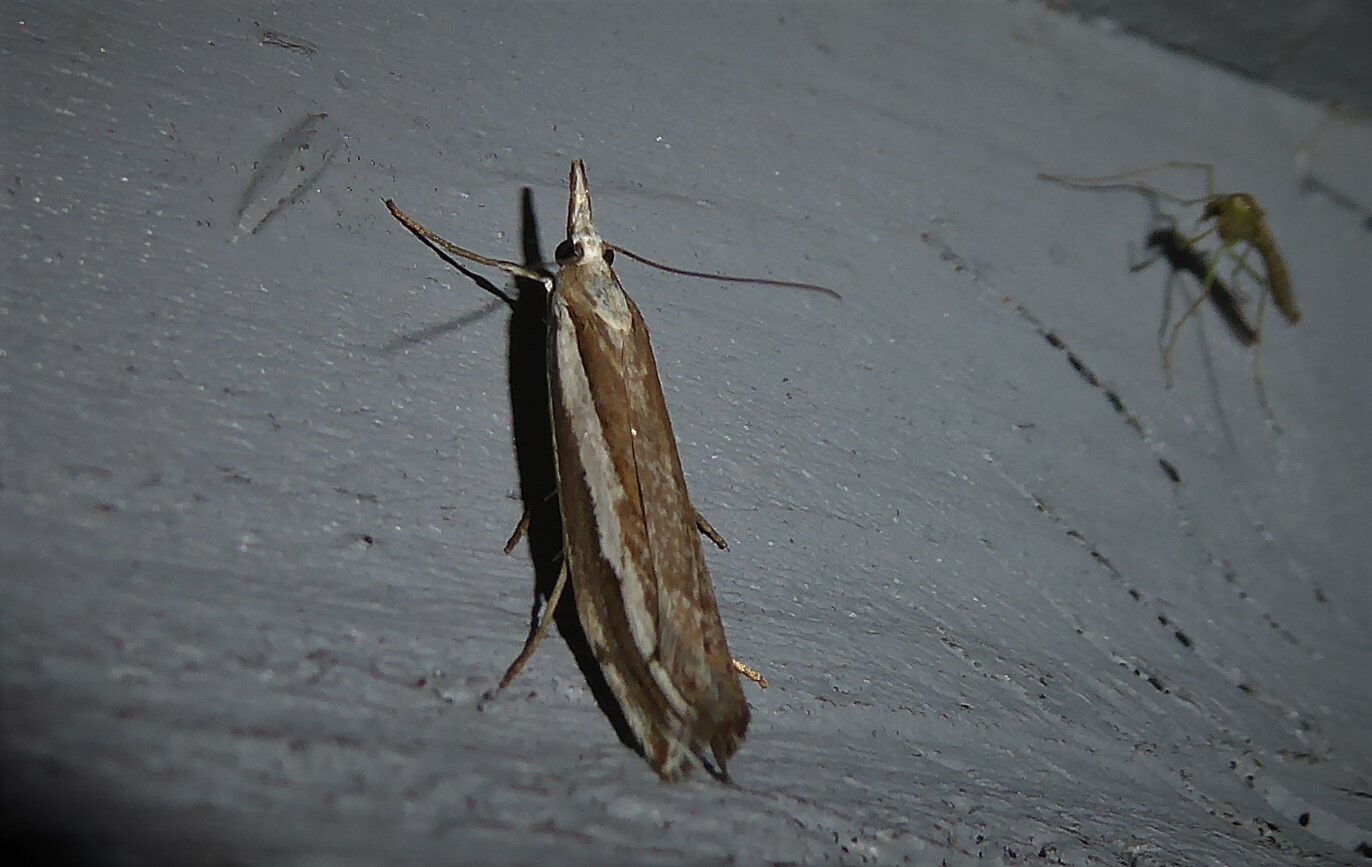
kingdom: Animalia
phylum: Arthropoda
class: Insecta
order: Lepidoptera
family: Crambidae
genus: Orocrambus
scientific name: Orocrambus vittellus
